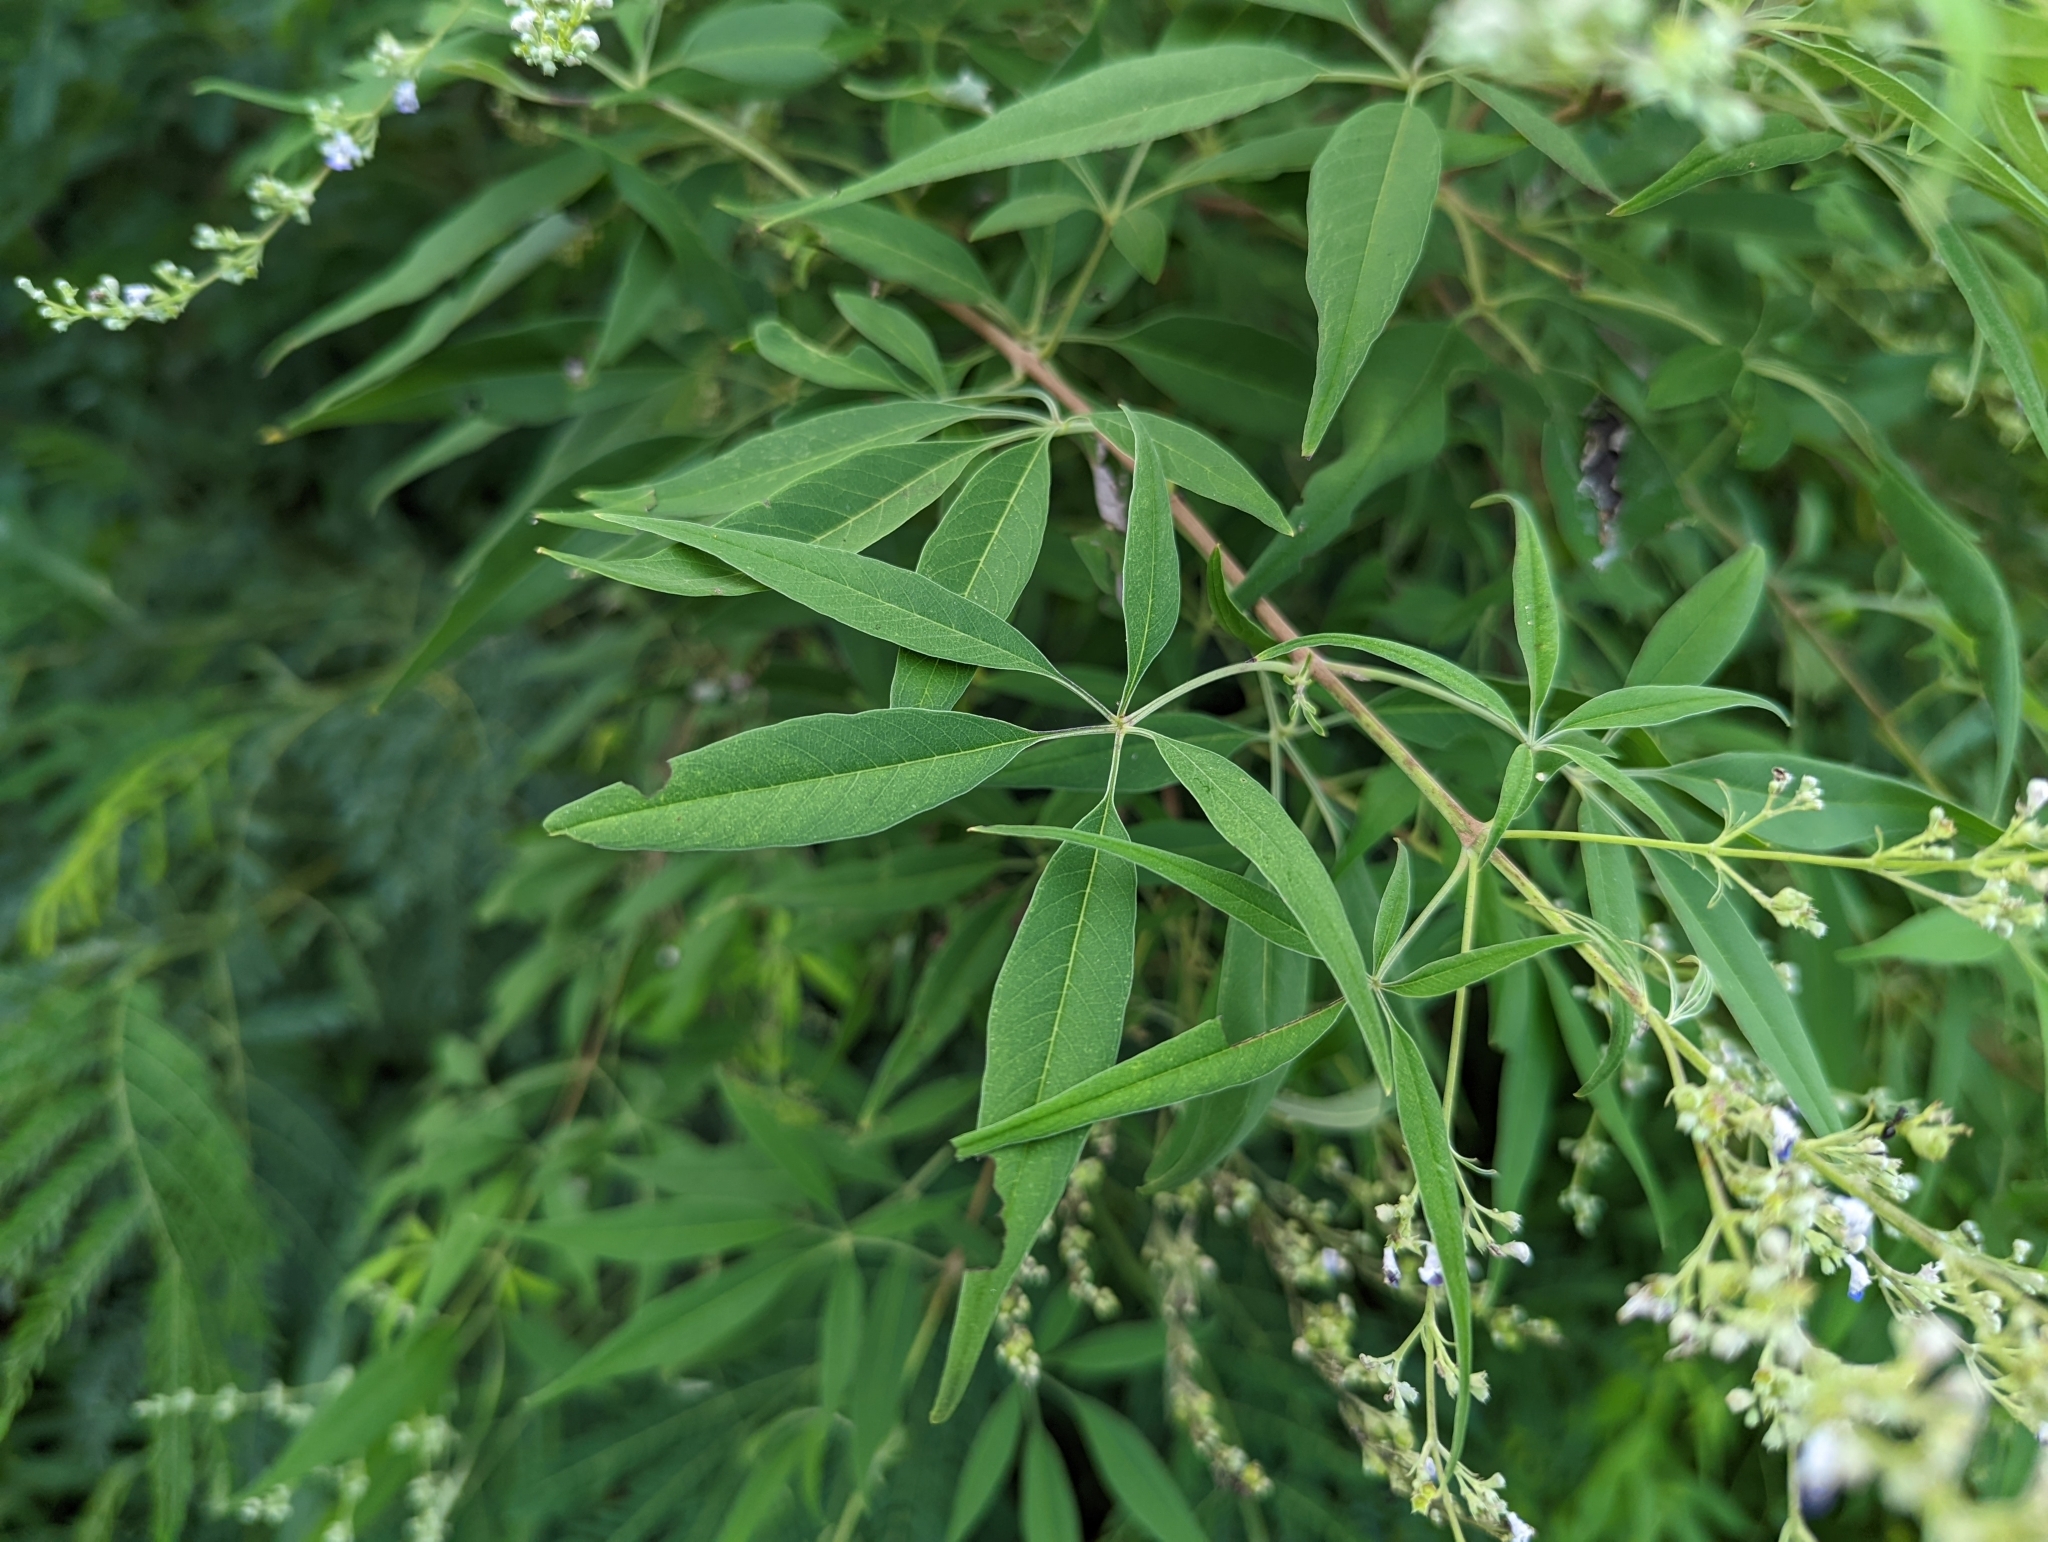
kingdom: Plantae
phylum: Tracheophyta
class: Magnoliopsida
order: Lamiales
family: Lamiaceae
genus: Vitex
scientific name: Vitex negundo
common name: Chinese chastetree
